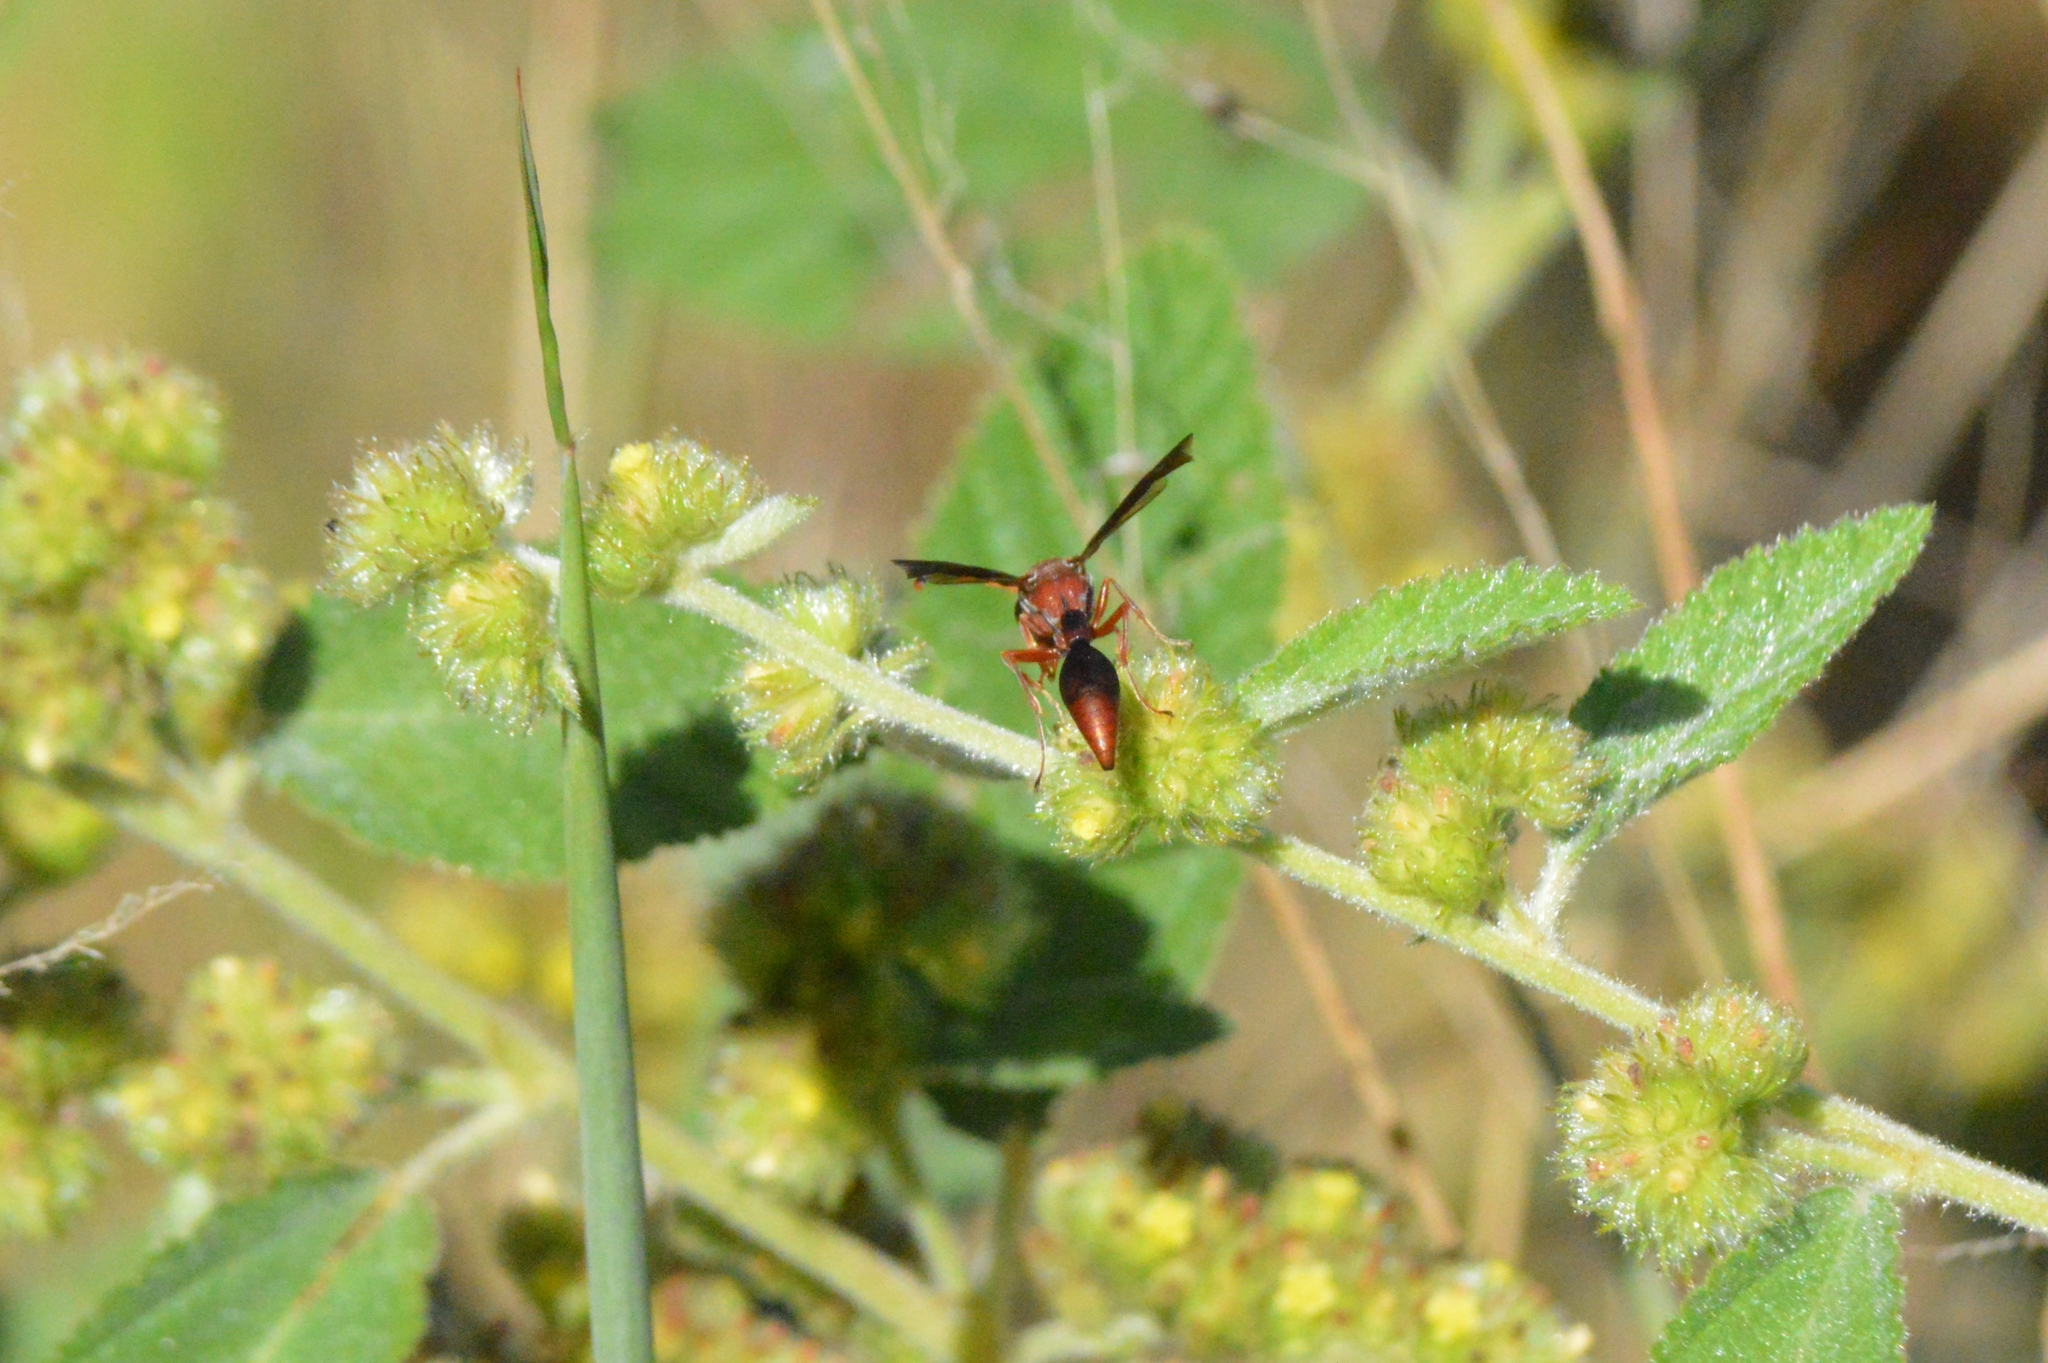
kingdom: Animalia
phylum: Arthropoda
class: Insecta
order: Hymenoptera
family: Eumenidae
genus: Zeta
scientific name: Zeta argillaceum
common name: Potter wasp
